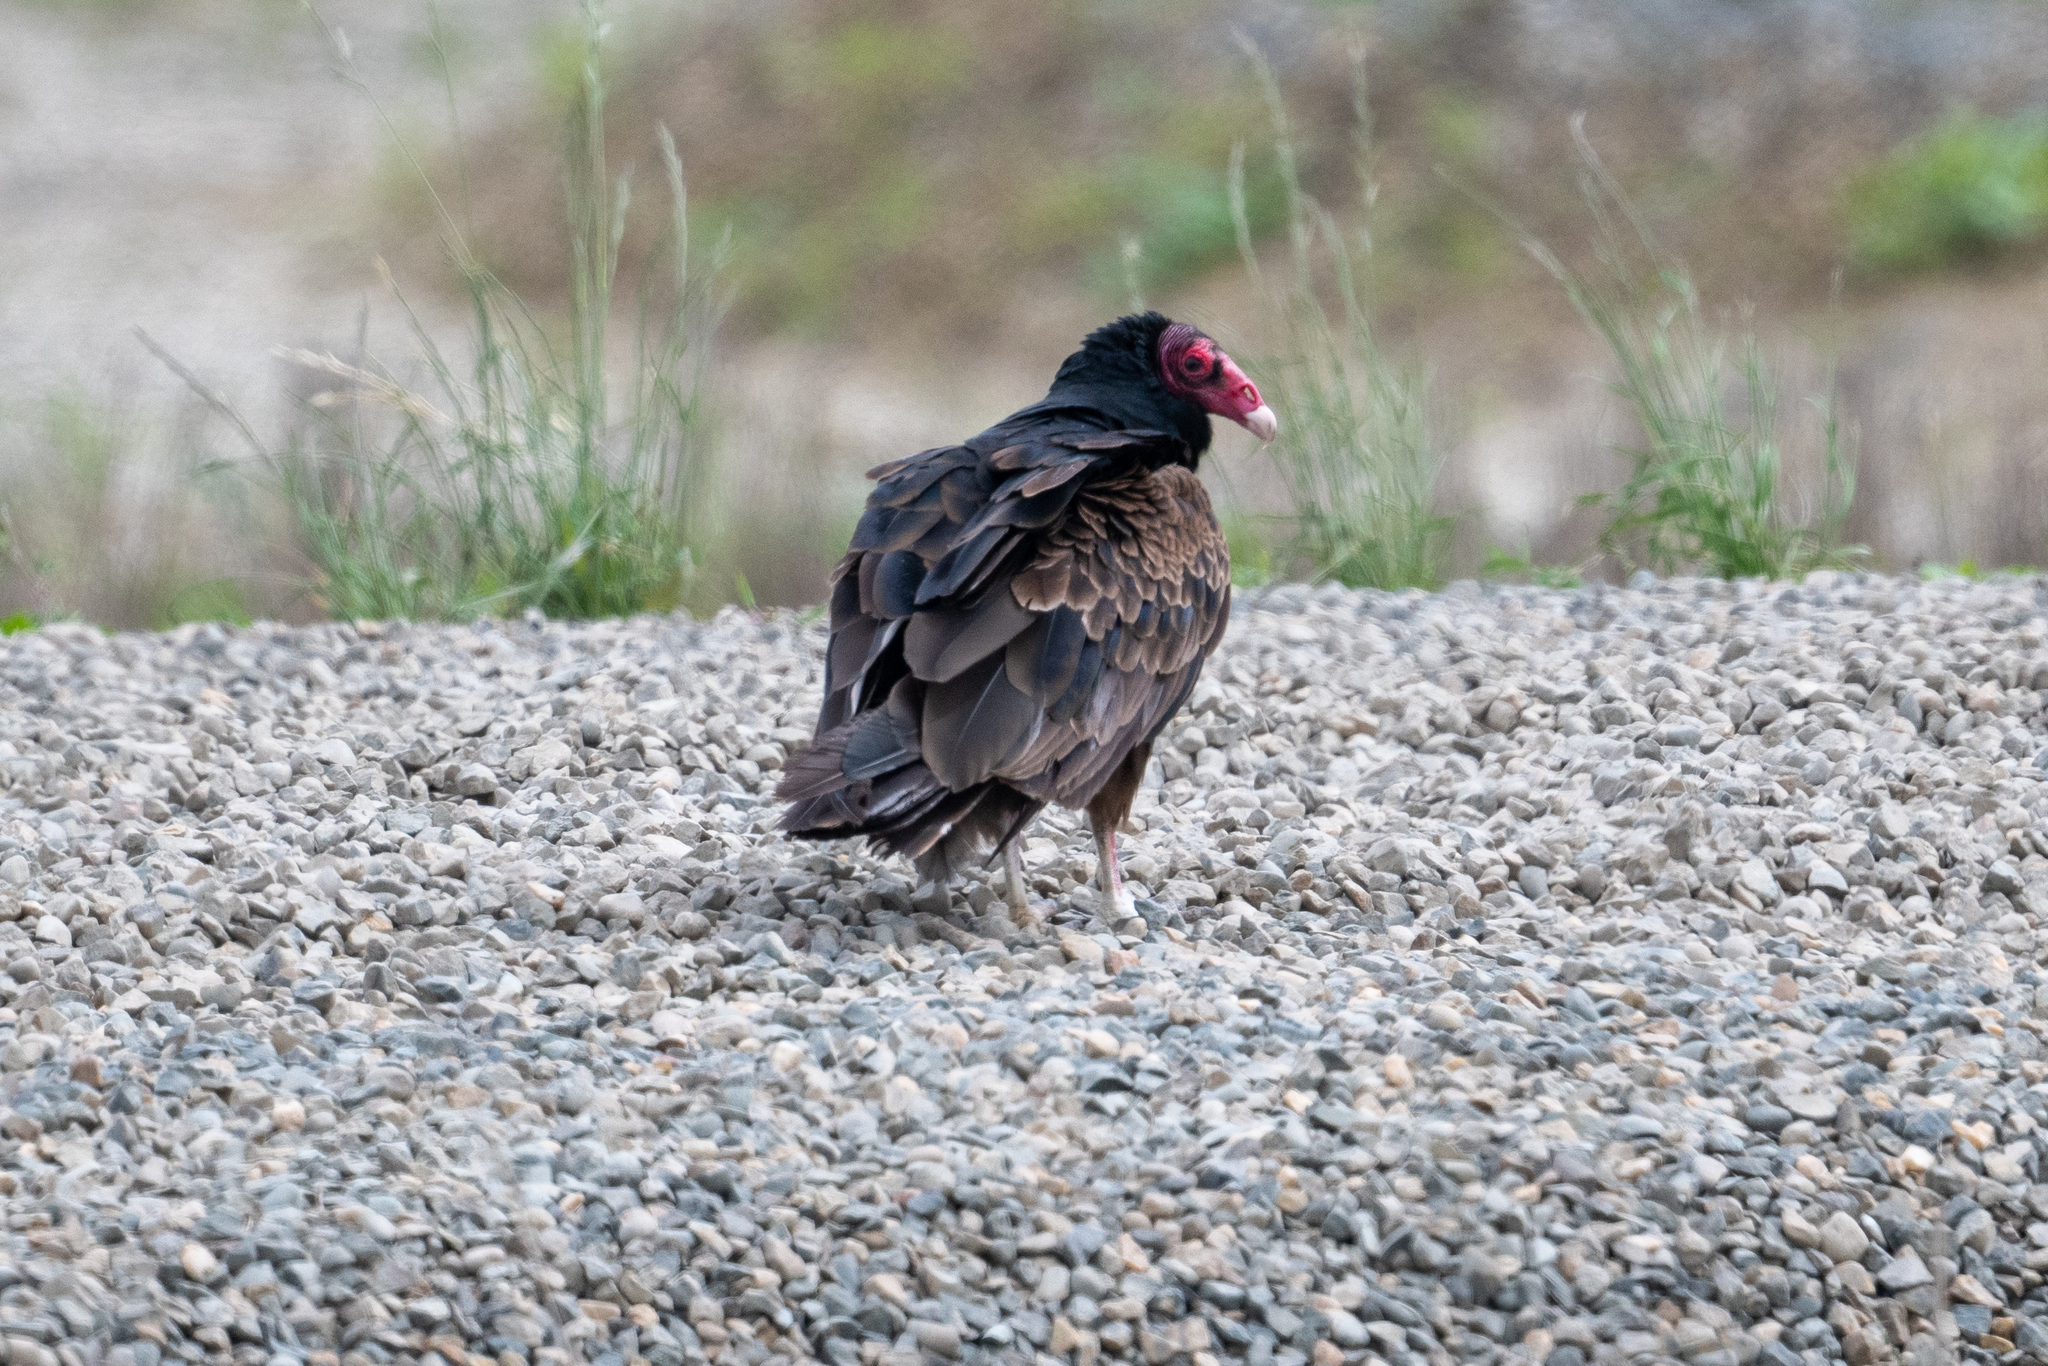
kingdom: Animalia
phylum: Chordata
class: Aves
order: Accipitriformes
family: Cathartidae
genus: Cathartes
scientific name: Cathartes aura
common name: Turkey vulture
